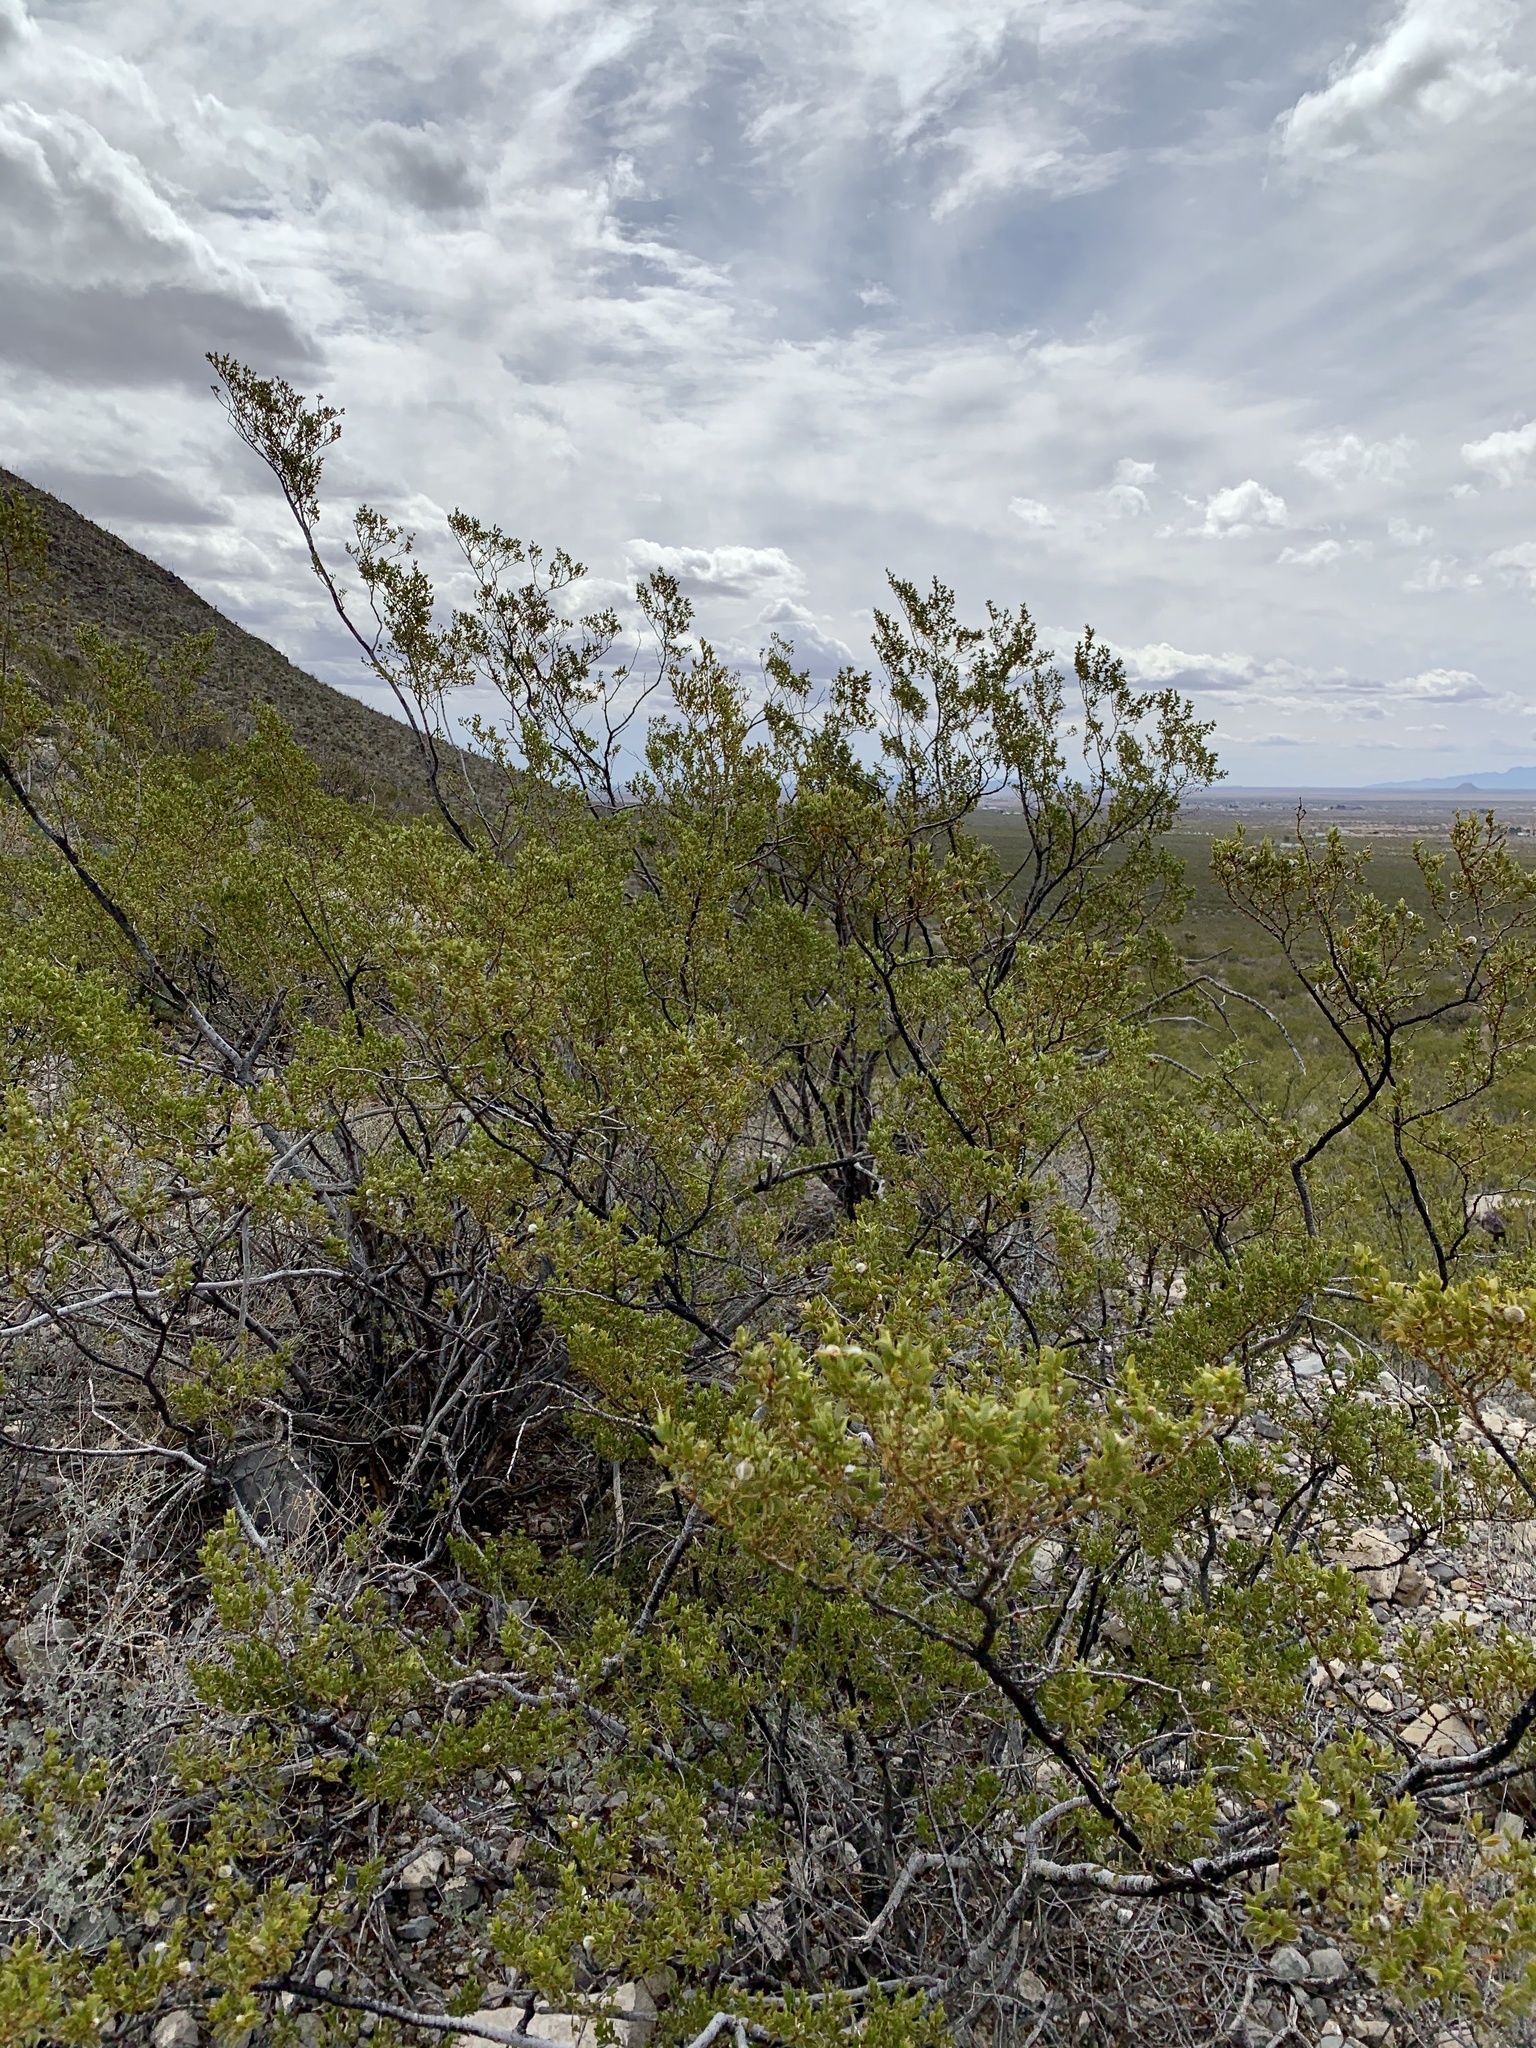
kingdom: Plantae
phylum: Tracheophyta
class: Magnoliopsida
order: Zygophyllales
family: Zygophyllaceae
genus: Larrea
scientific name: Larrea tridentata
